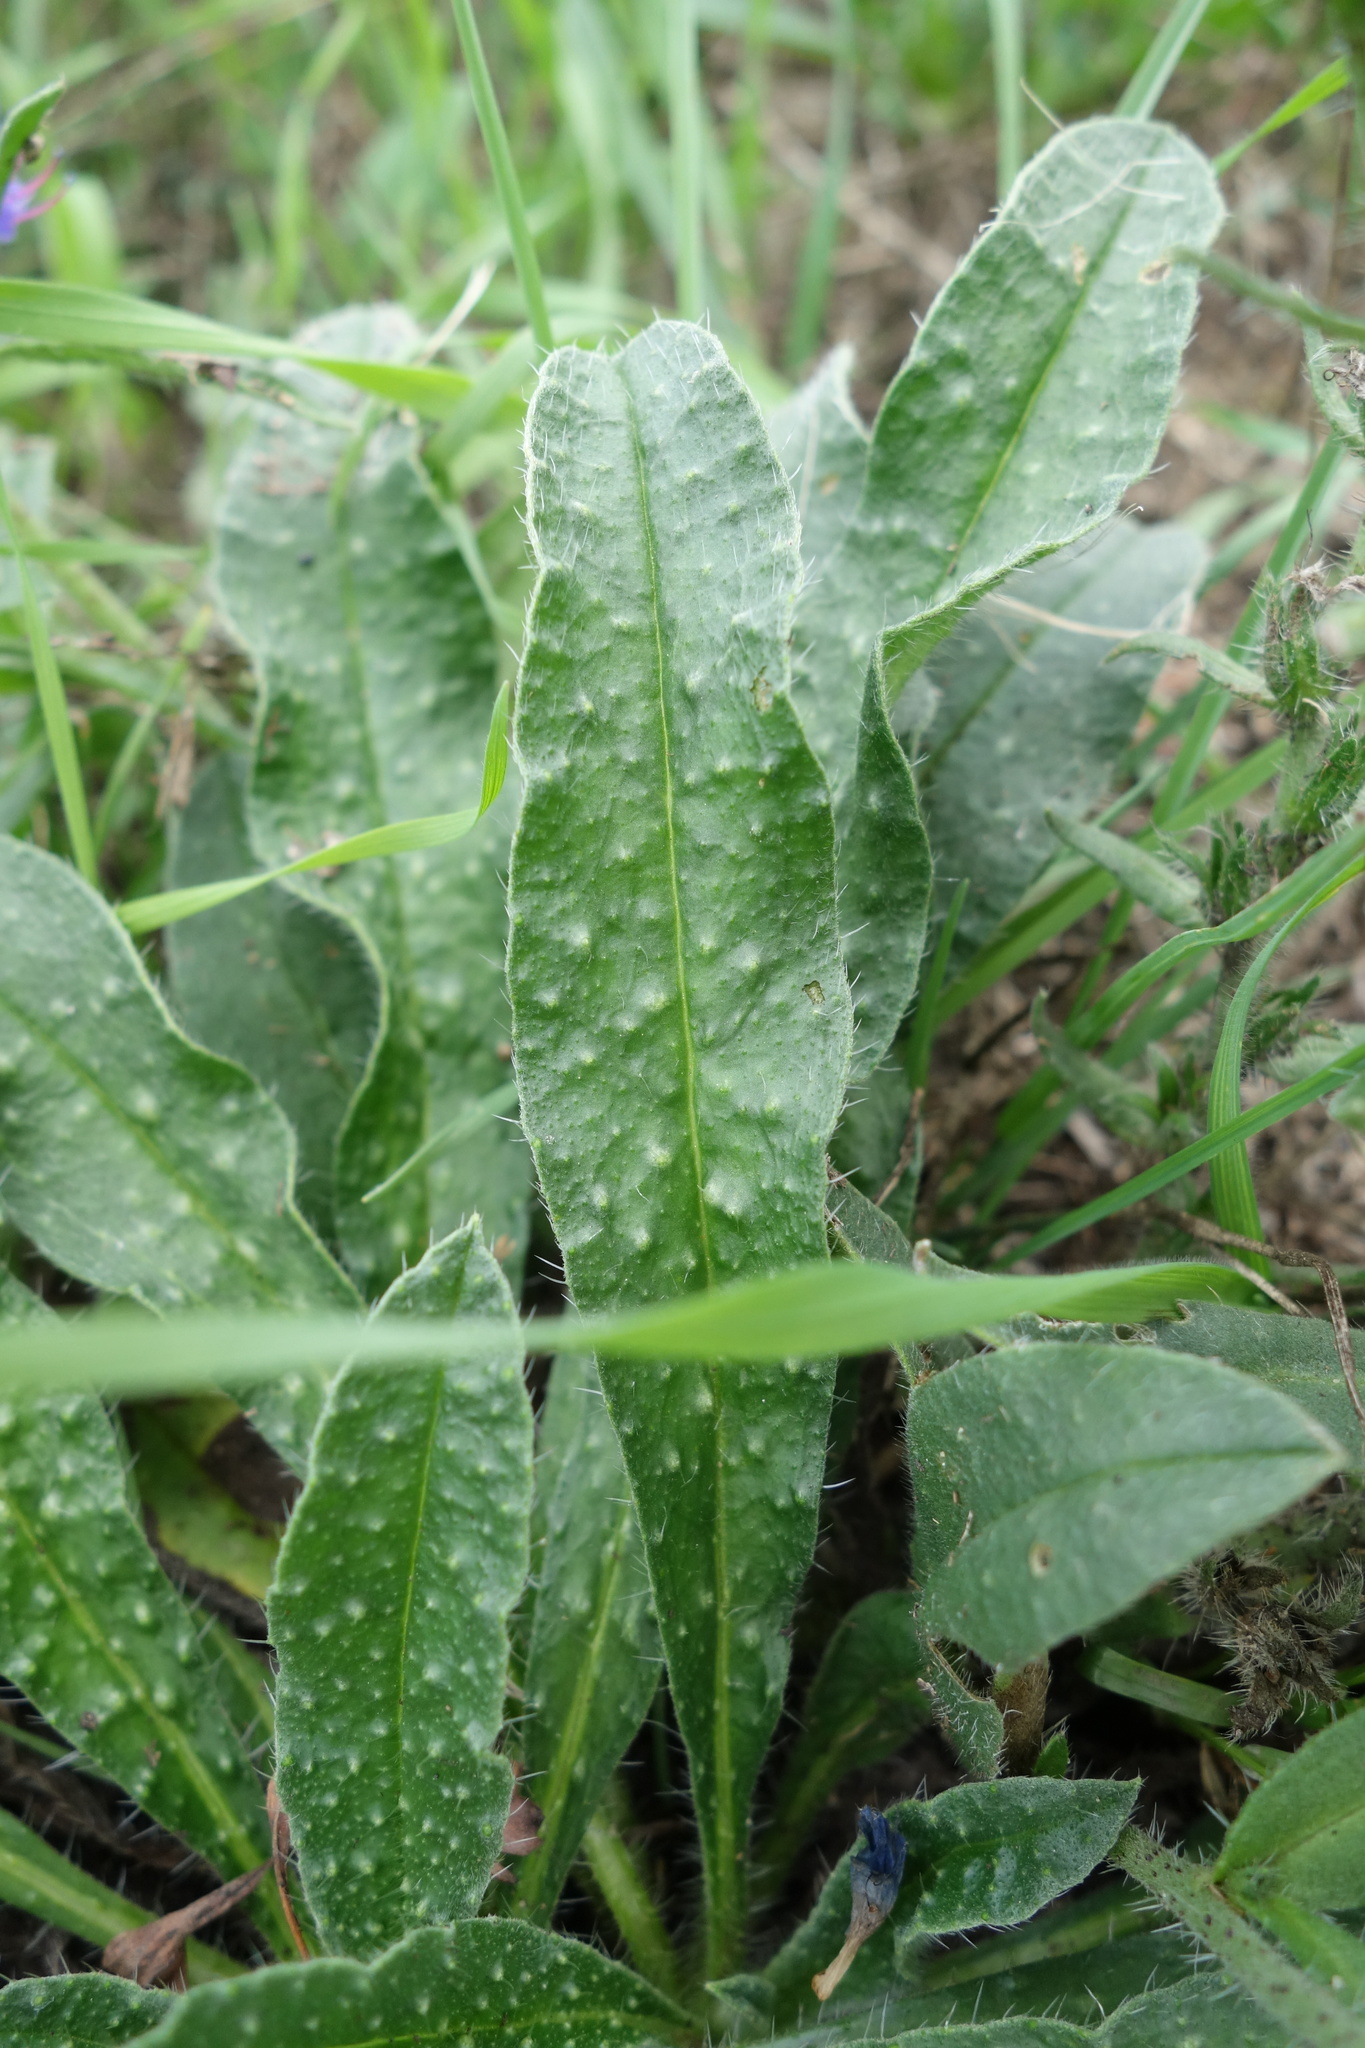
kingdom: Plantae
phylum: Tracheophyta
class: Magnoliopsida
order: Boraginales
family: Boraginaceae
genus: Echium
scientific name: Echium vulgare
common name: Common viper's bugloss
